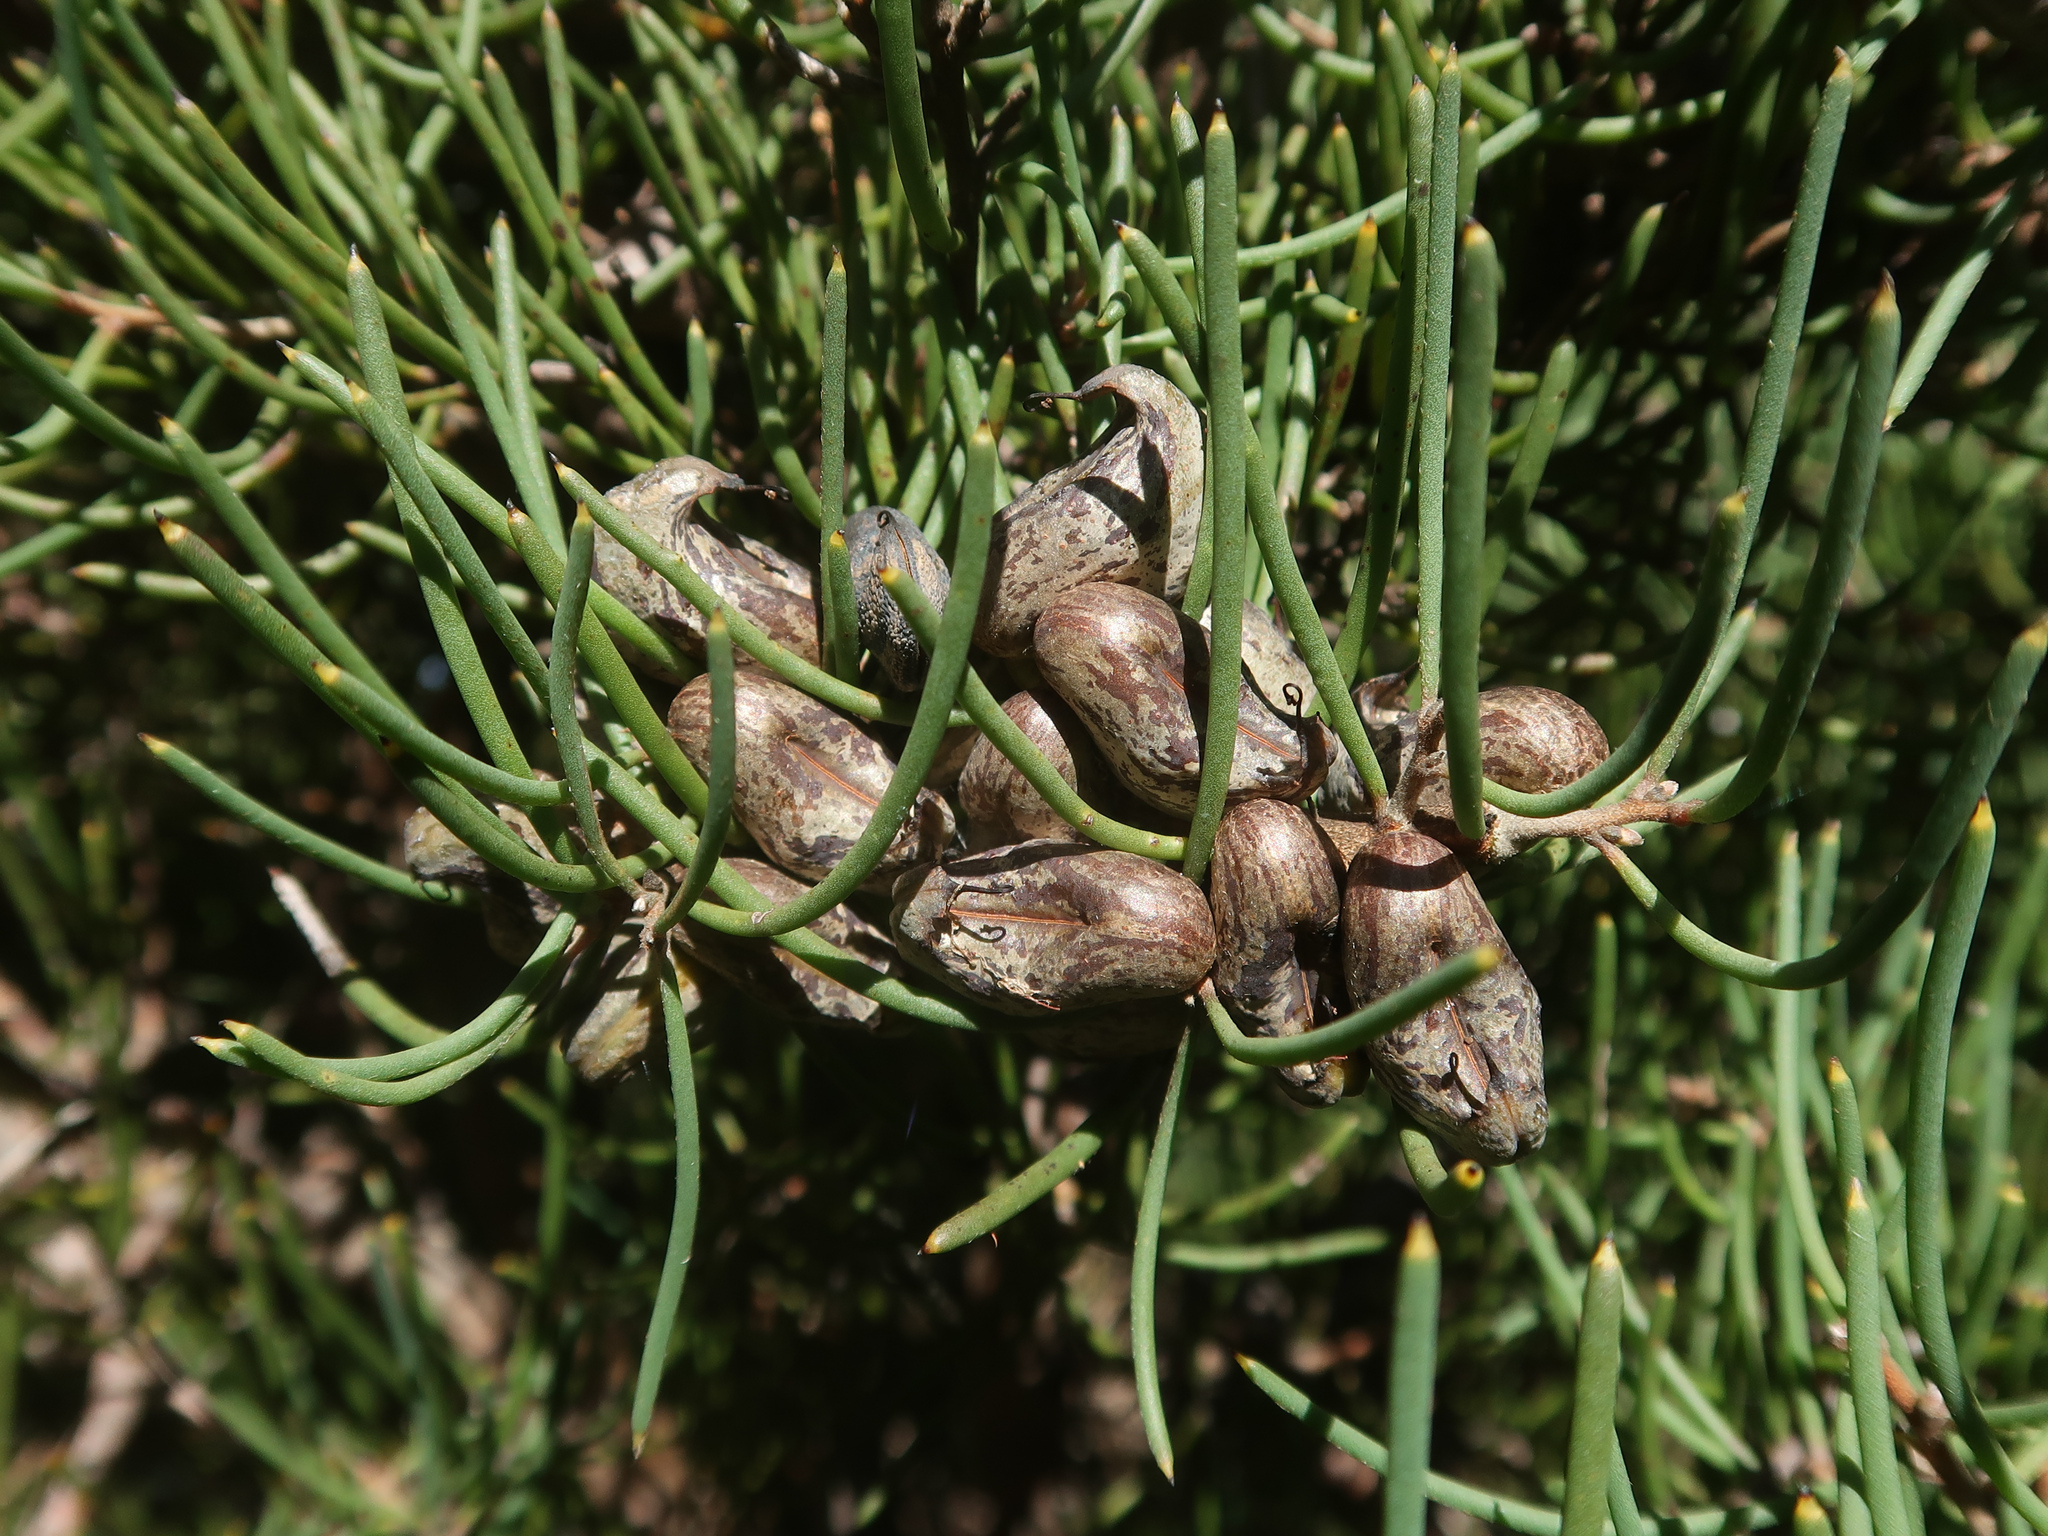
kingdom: Plantae
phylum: Tracheophyta
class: Magnoliopsida
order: Proteales
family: Proteaceae
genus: Hakea
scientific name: Hakea epiglottis
